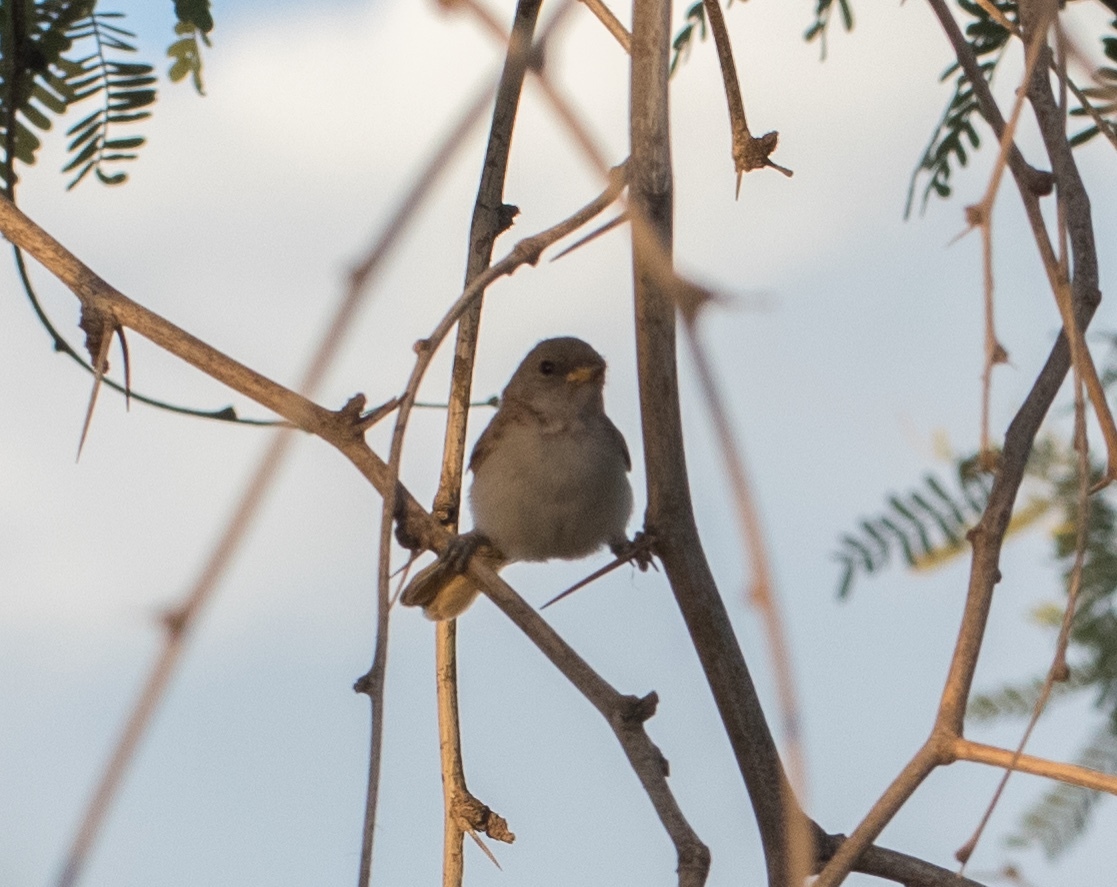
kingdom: Animalia
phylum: Chordata
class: Aves
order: Passeriformes
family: Remizidae
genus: Auriparus
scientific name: Auriparus flaviceps
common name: Verdin
